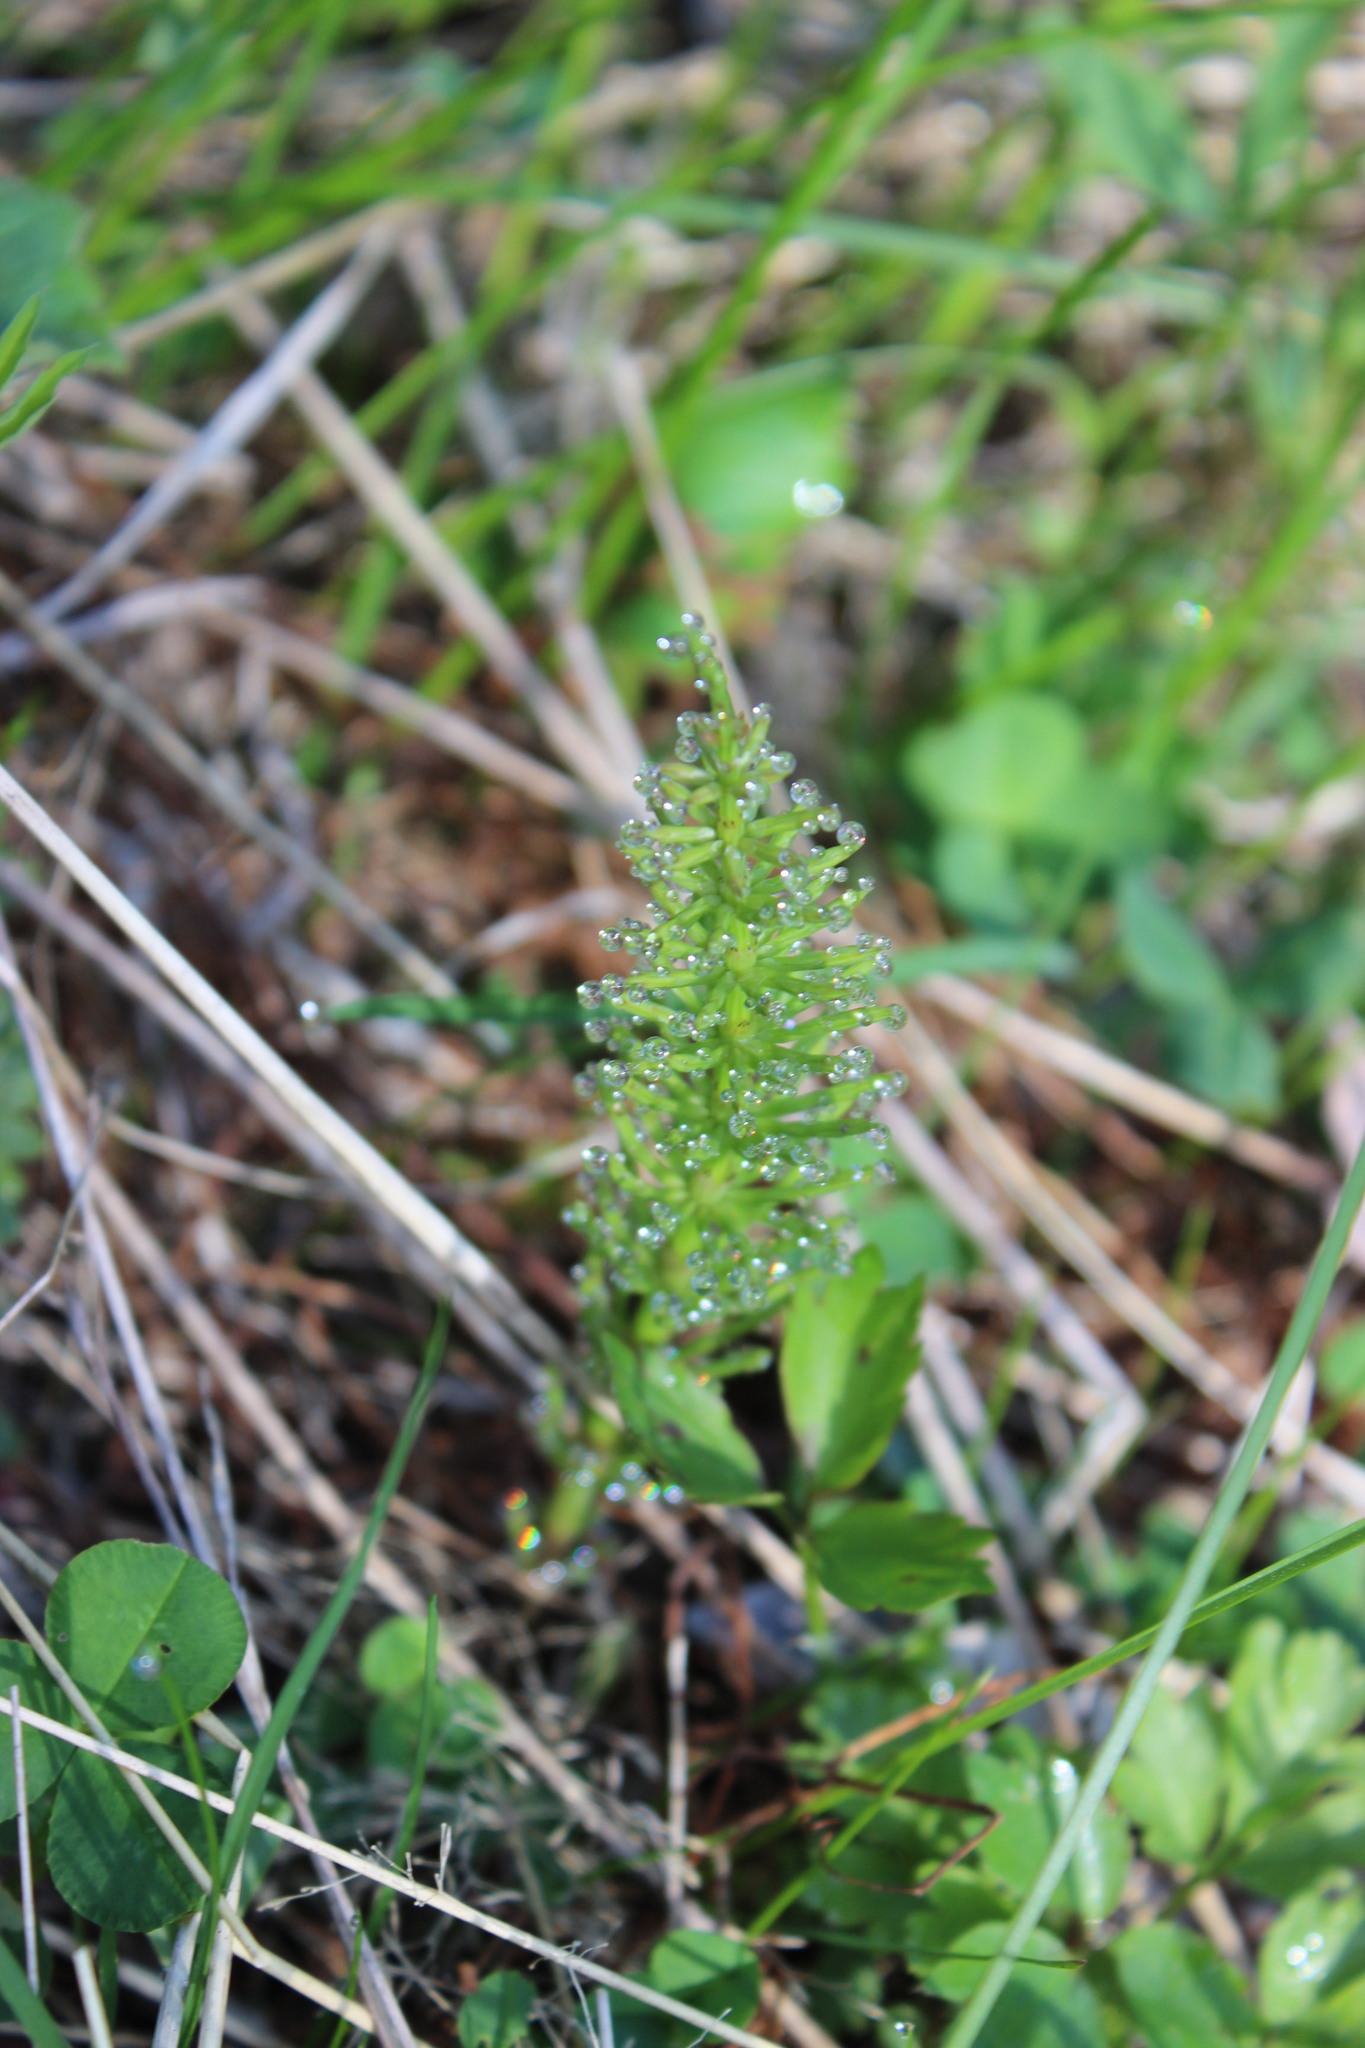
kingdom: Plantae
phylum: Tracheophyta
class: Polypodiopsida
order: Equisetales
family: Equisetaceae
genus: Equisetum
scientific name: Equisetum arvense
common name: Field horsetail
